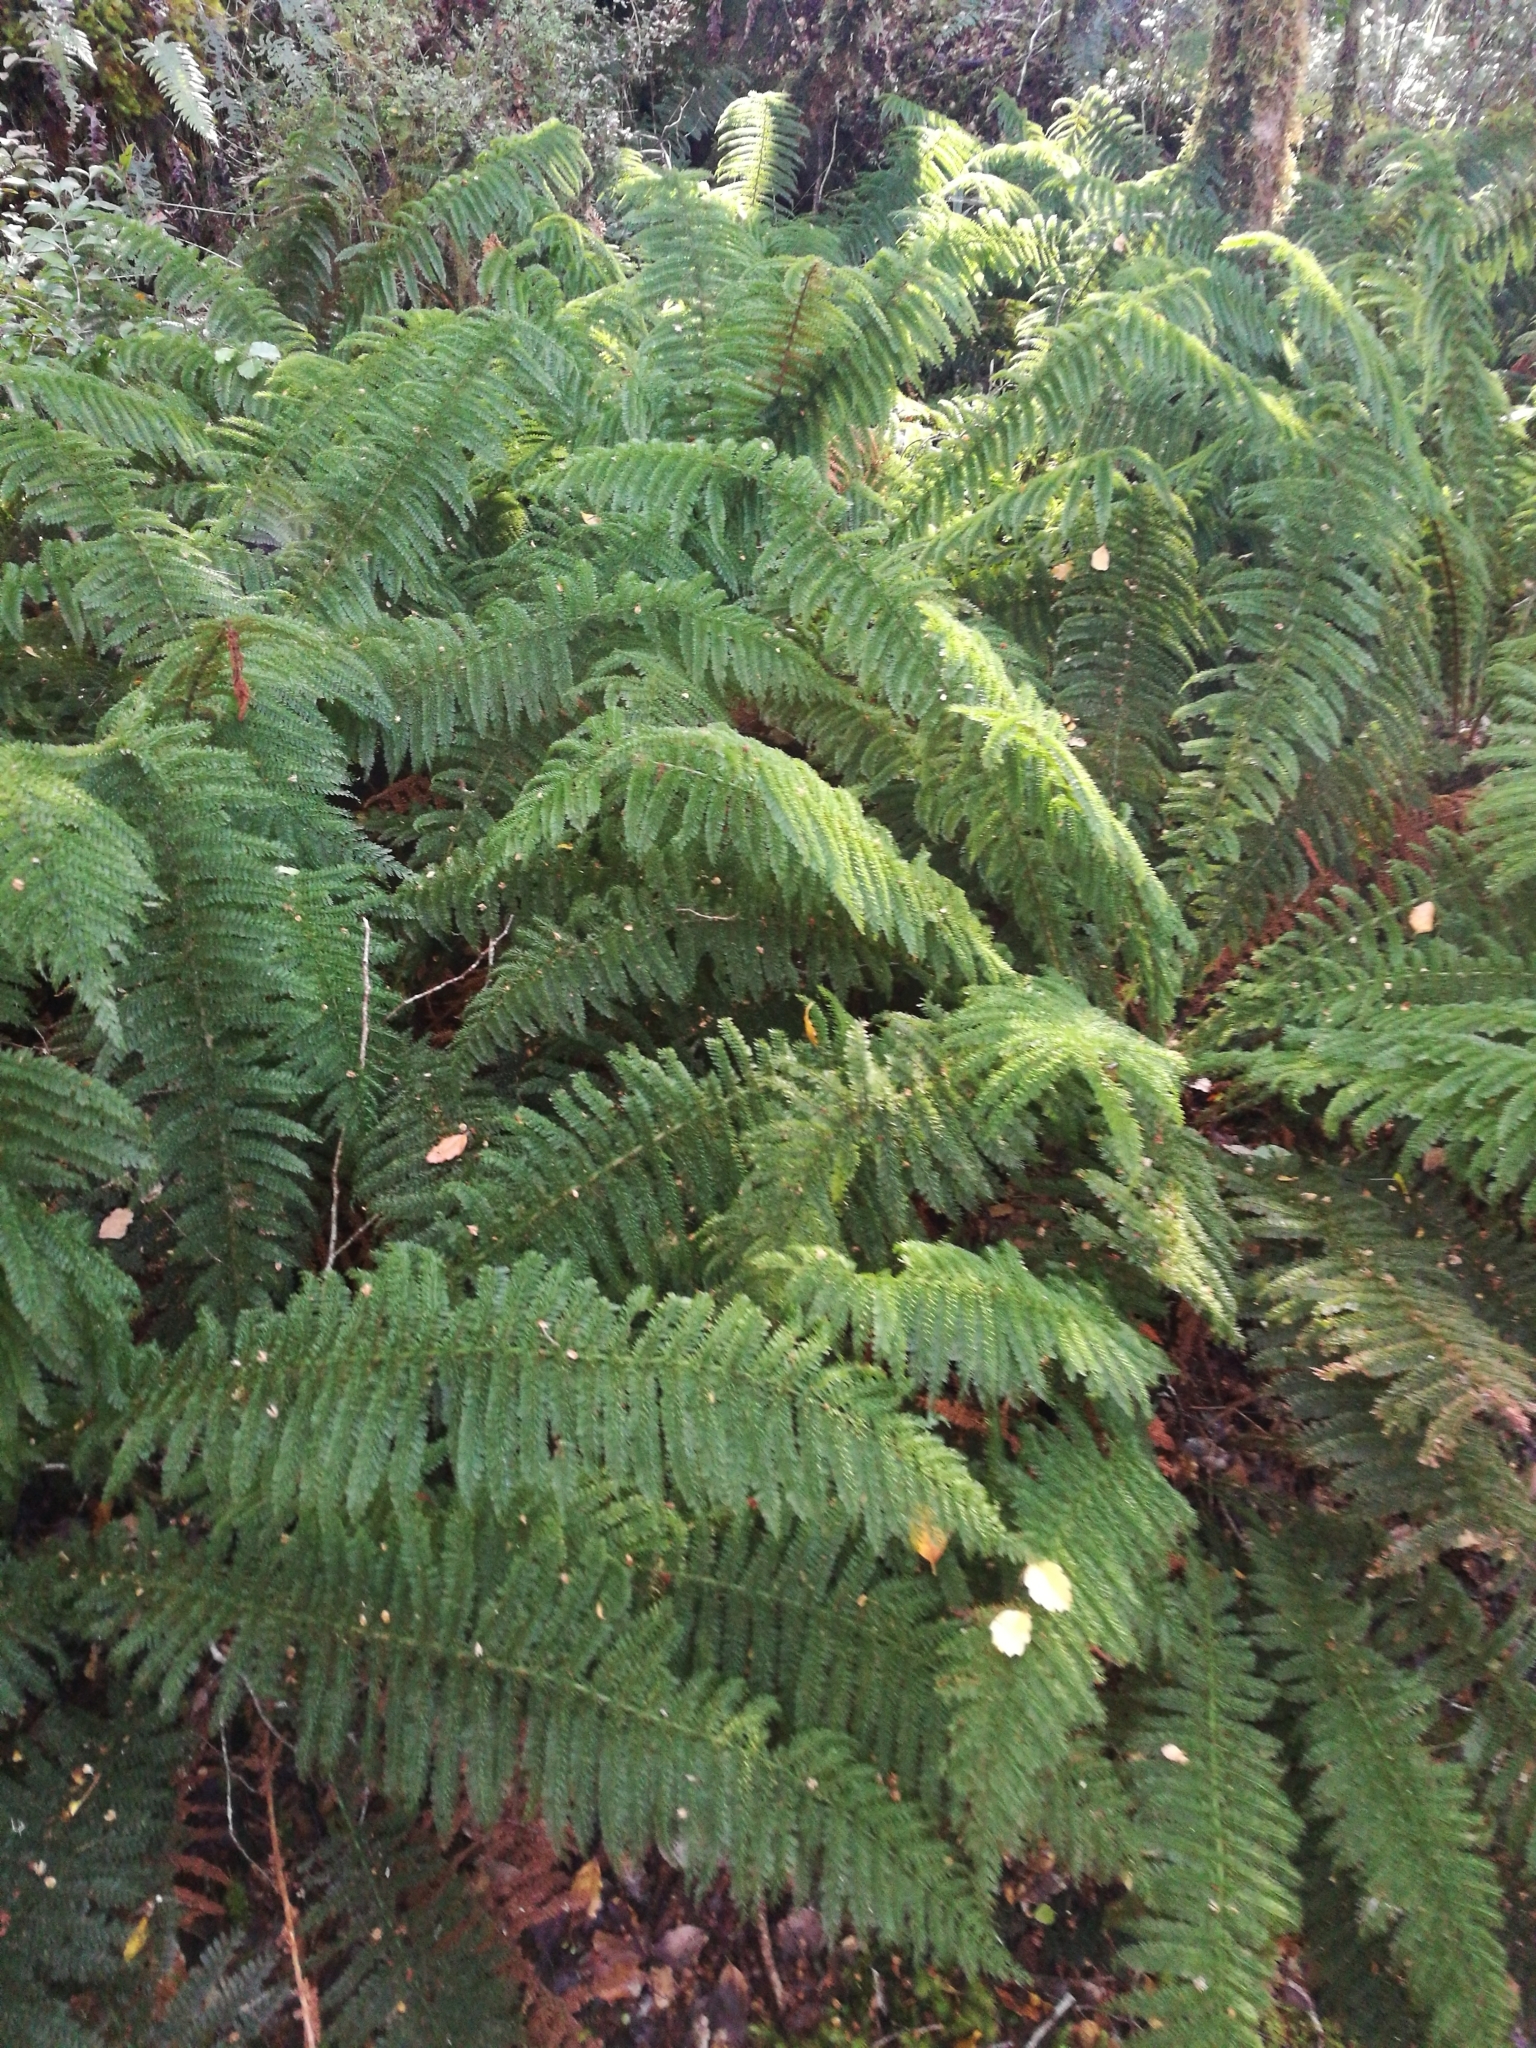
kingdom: Plantae
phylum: Tracheophyta
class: Polypodiopsida
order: Osmundales
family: Osmundaceae
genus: Leptopteris
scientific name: Leptopteris superba
